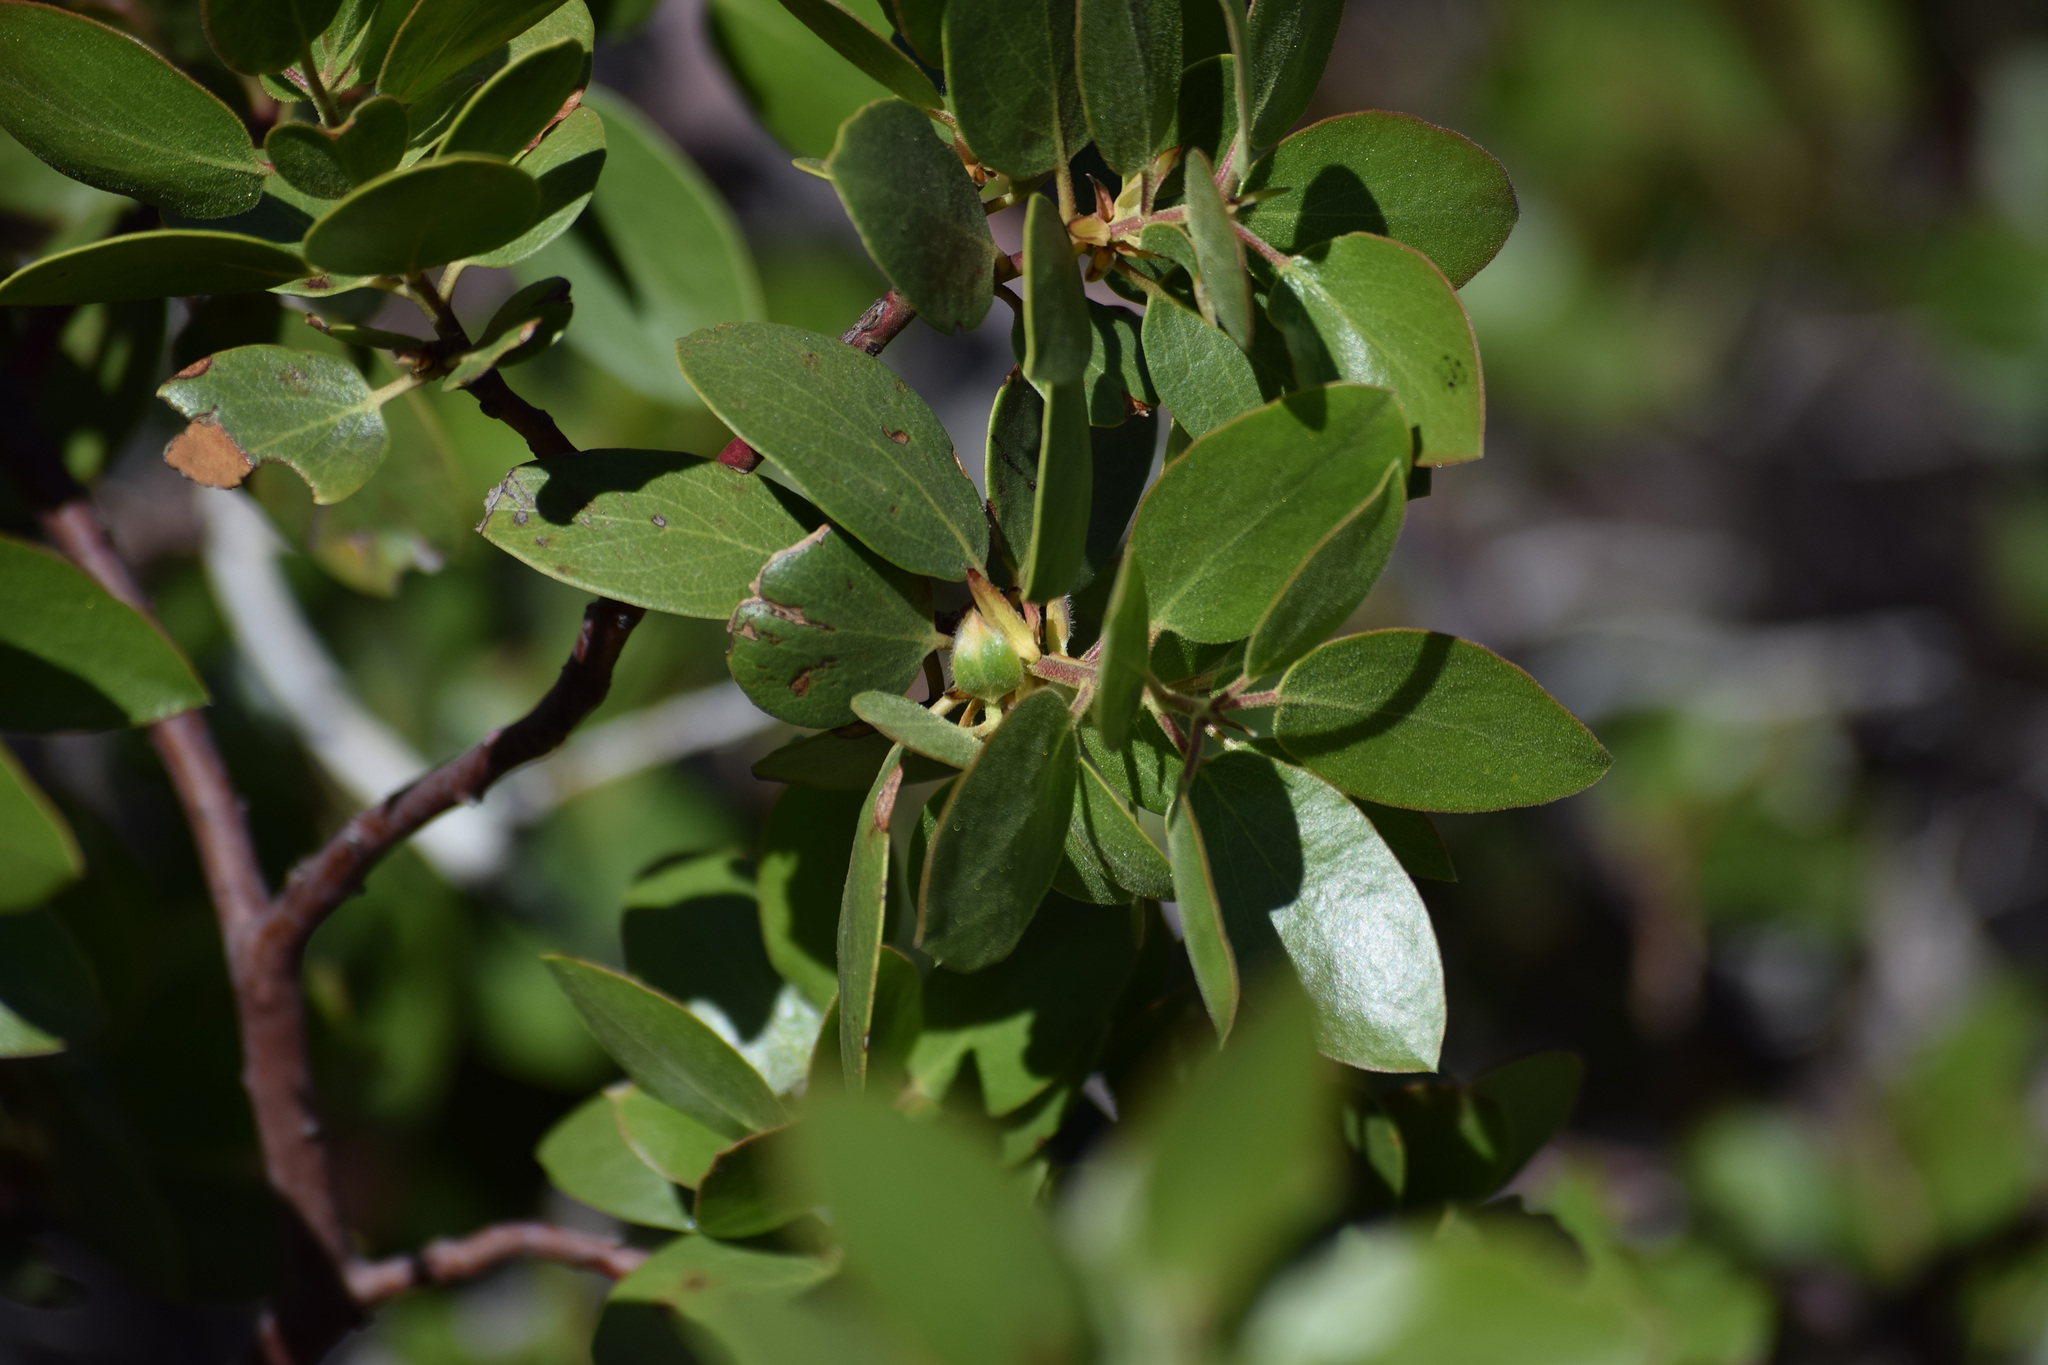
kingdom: Plantae
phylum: Tracheophyta
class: Magnoliopsida
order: Ericales
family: Ericaceae
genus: Arctostaphylos
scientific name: Arctostaphylos patula
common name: Green-leaf manzanita
